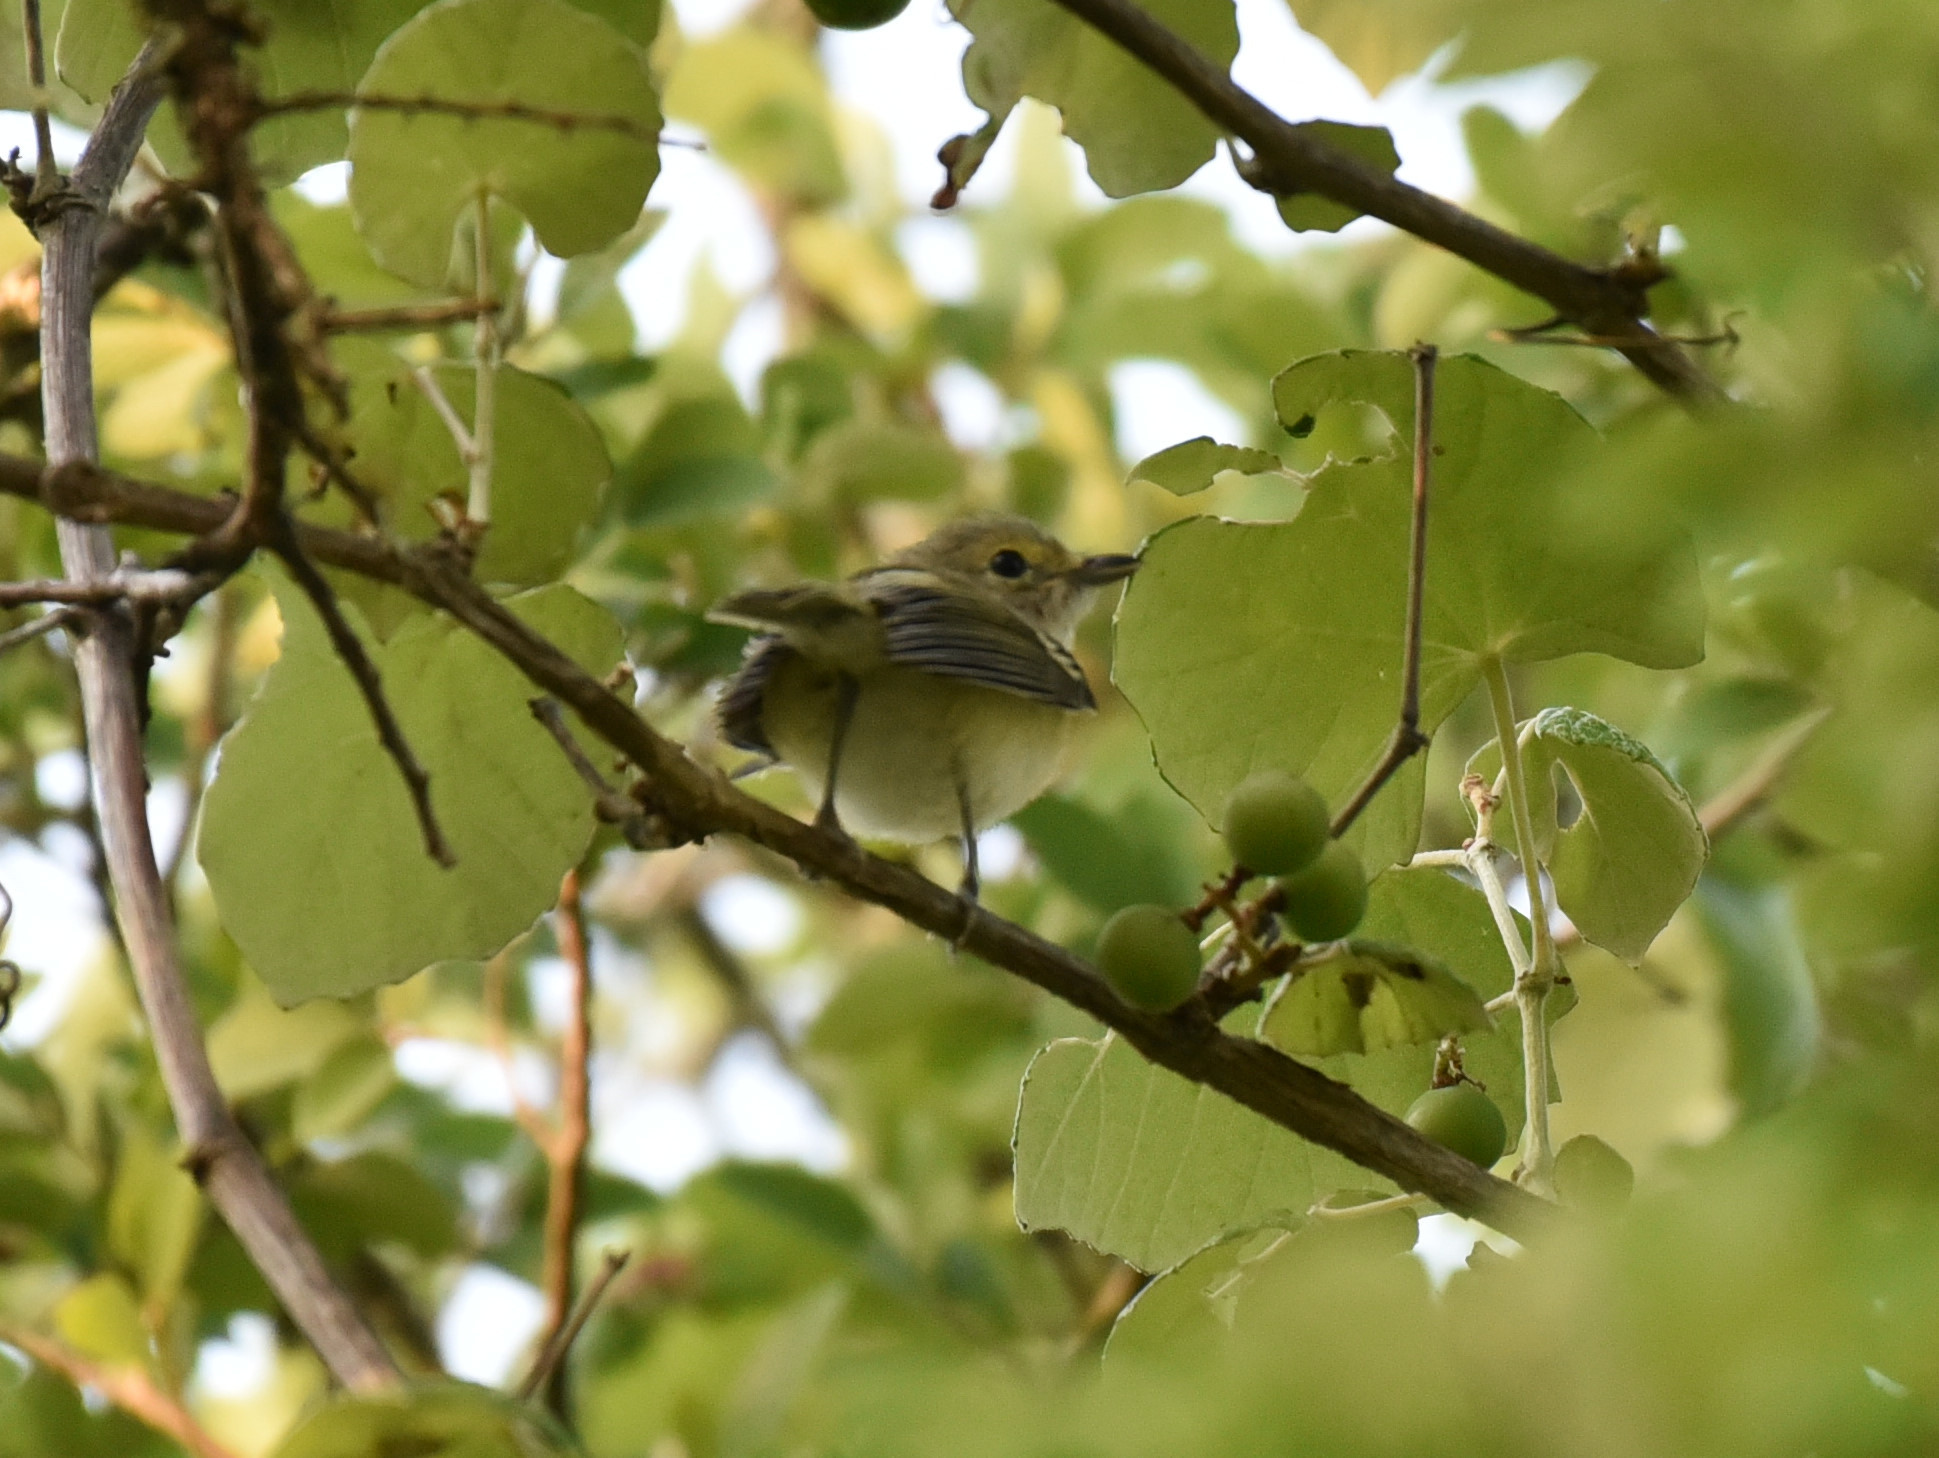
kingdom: Animalia
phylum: Chordata
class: Aves
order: Passeriformes
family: Vireonidae
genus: Vireo
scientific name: Vireo griseus
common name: White-eyed vireo
